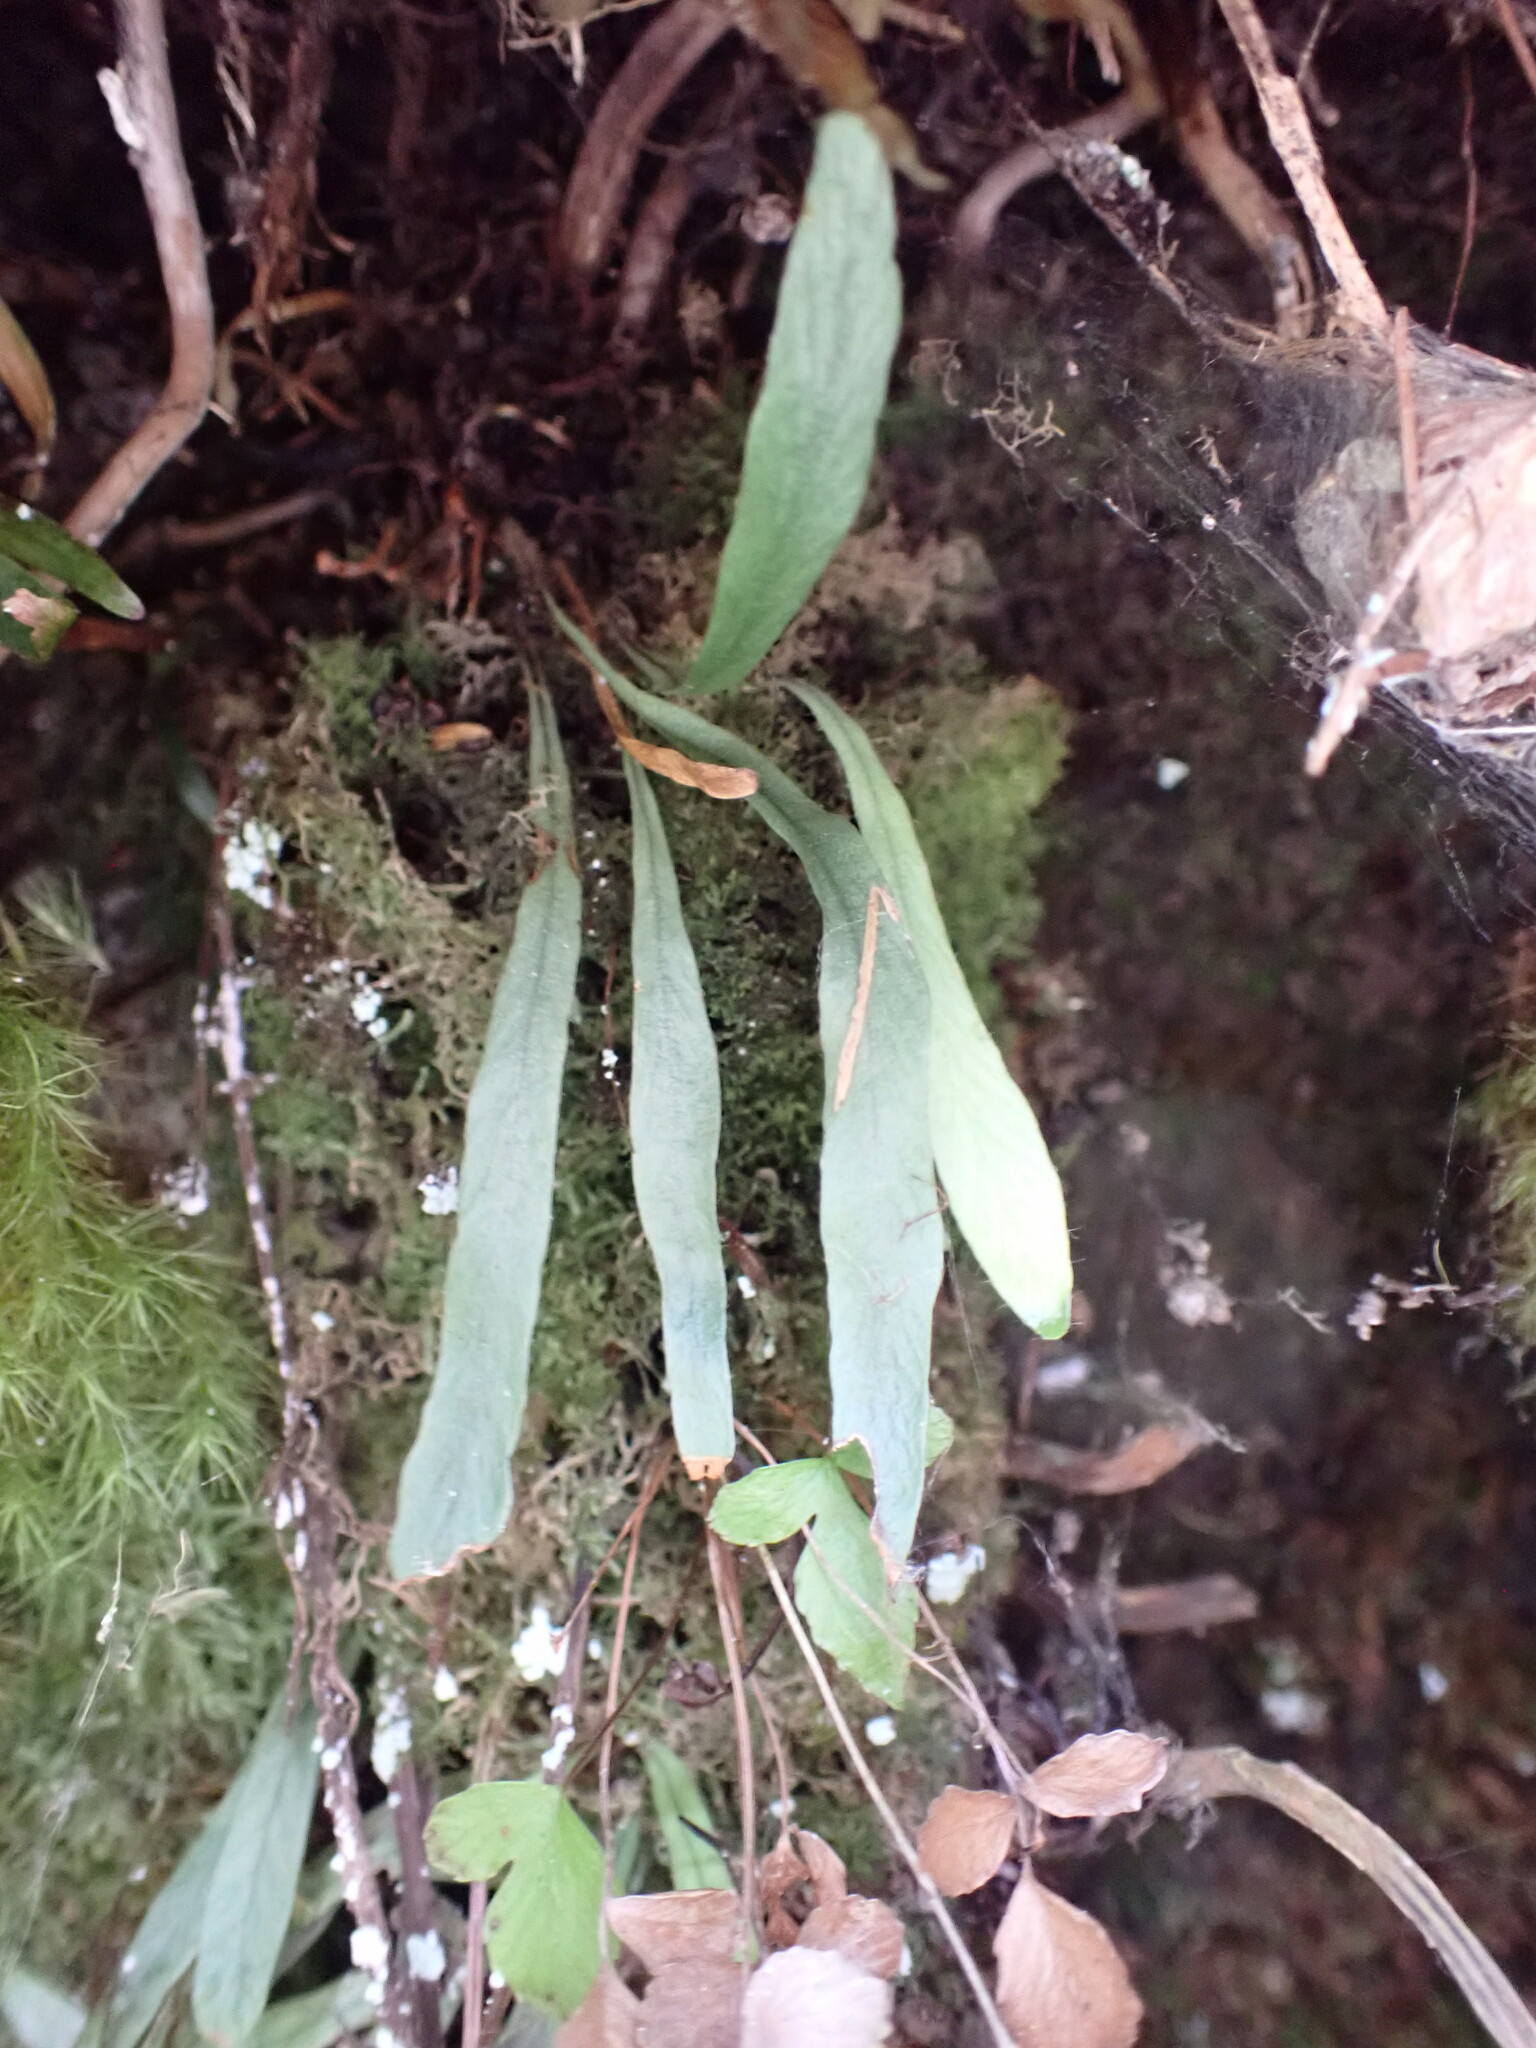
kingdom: Plantae
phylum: Tracheophyta
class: Polypodiopsida
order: Polypodiales
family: Polypodiaceae
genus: Notogrammitis
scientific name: Notogrammitis givenii
